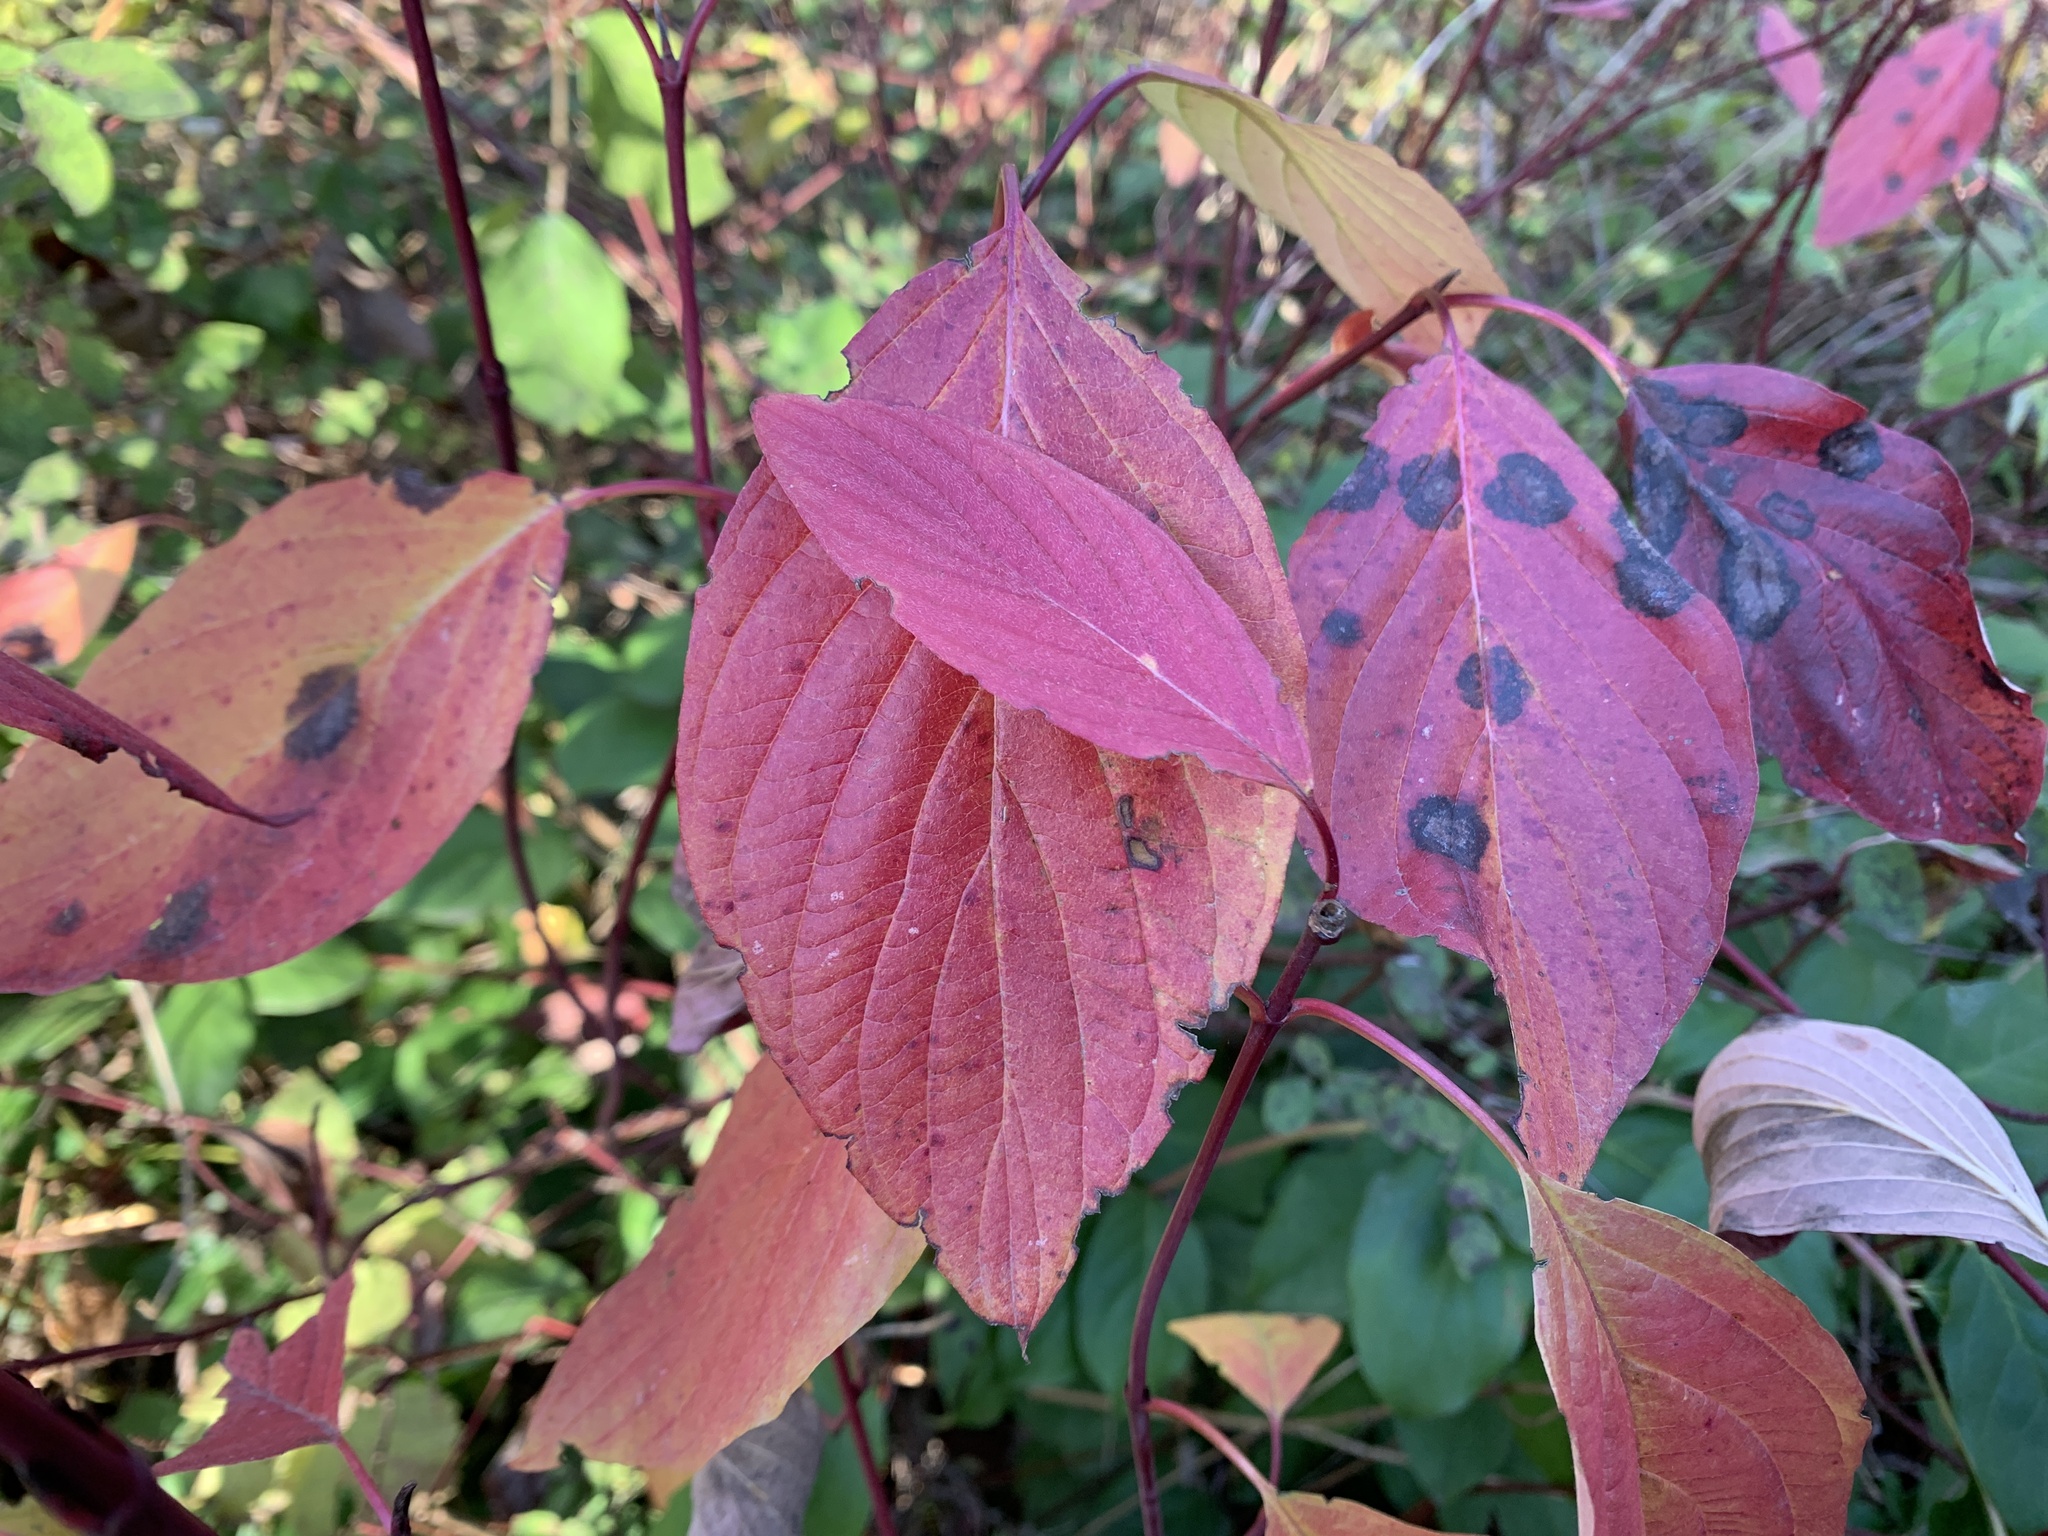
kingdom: Plantae
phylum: Tracheophyta
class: Magnoliopsida
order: Cornales
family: Cornaceae
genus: Cornus
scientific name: Cornus sericea
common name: Red-osier dogwood
